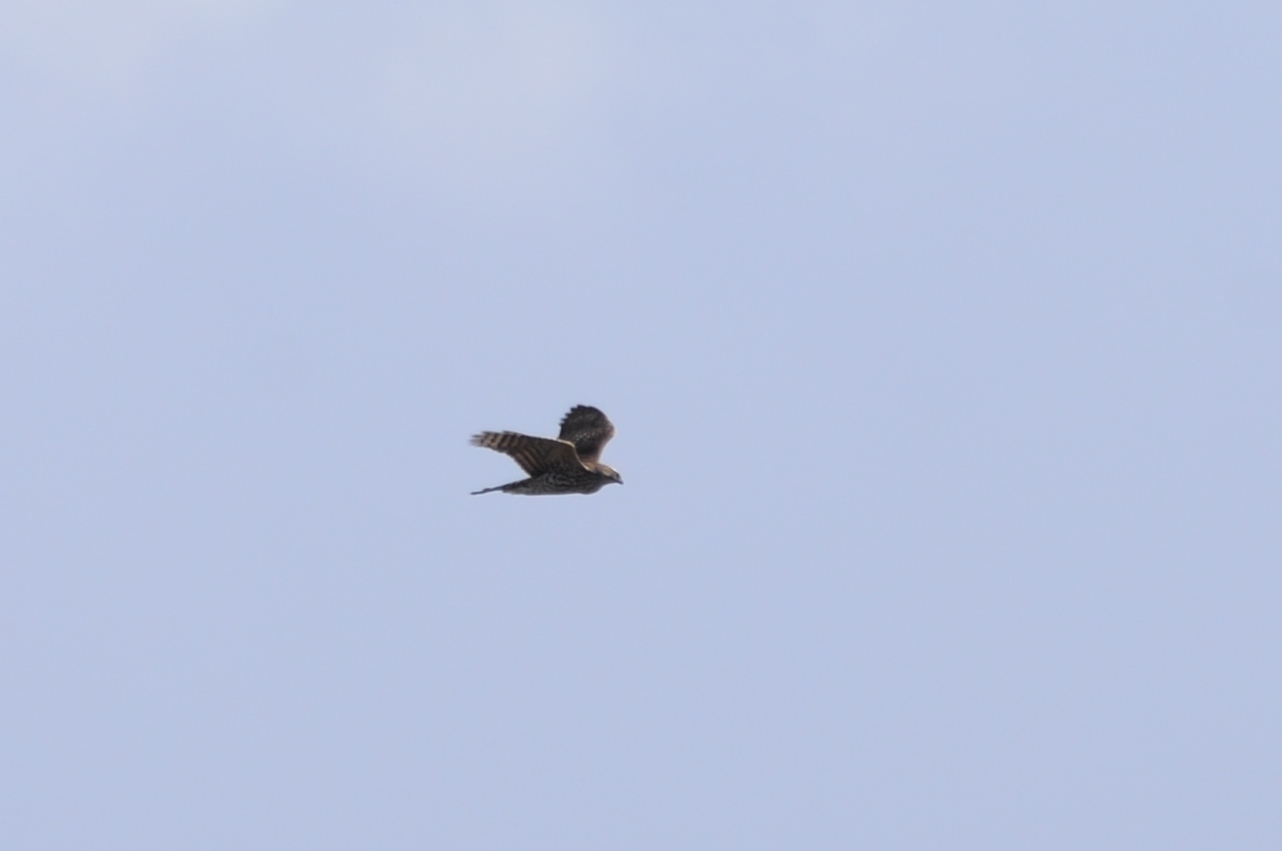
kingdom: Animalia
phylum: Chordata
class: Aves
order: Accipitriformes
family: Accipitridae
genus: Accipiter
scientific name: Accipiter gentilis
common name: Northern goshawk
